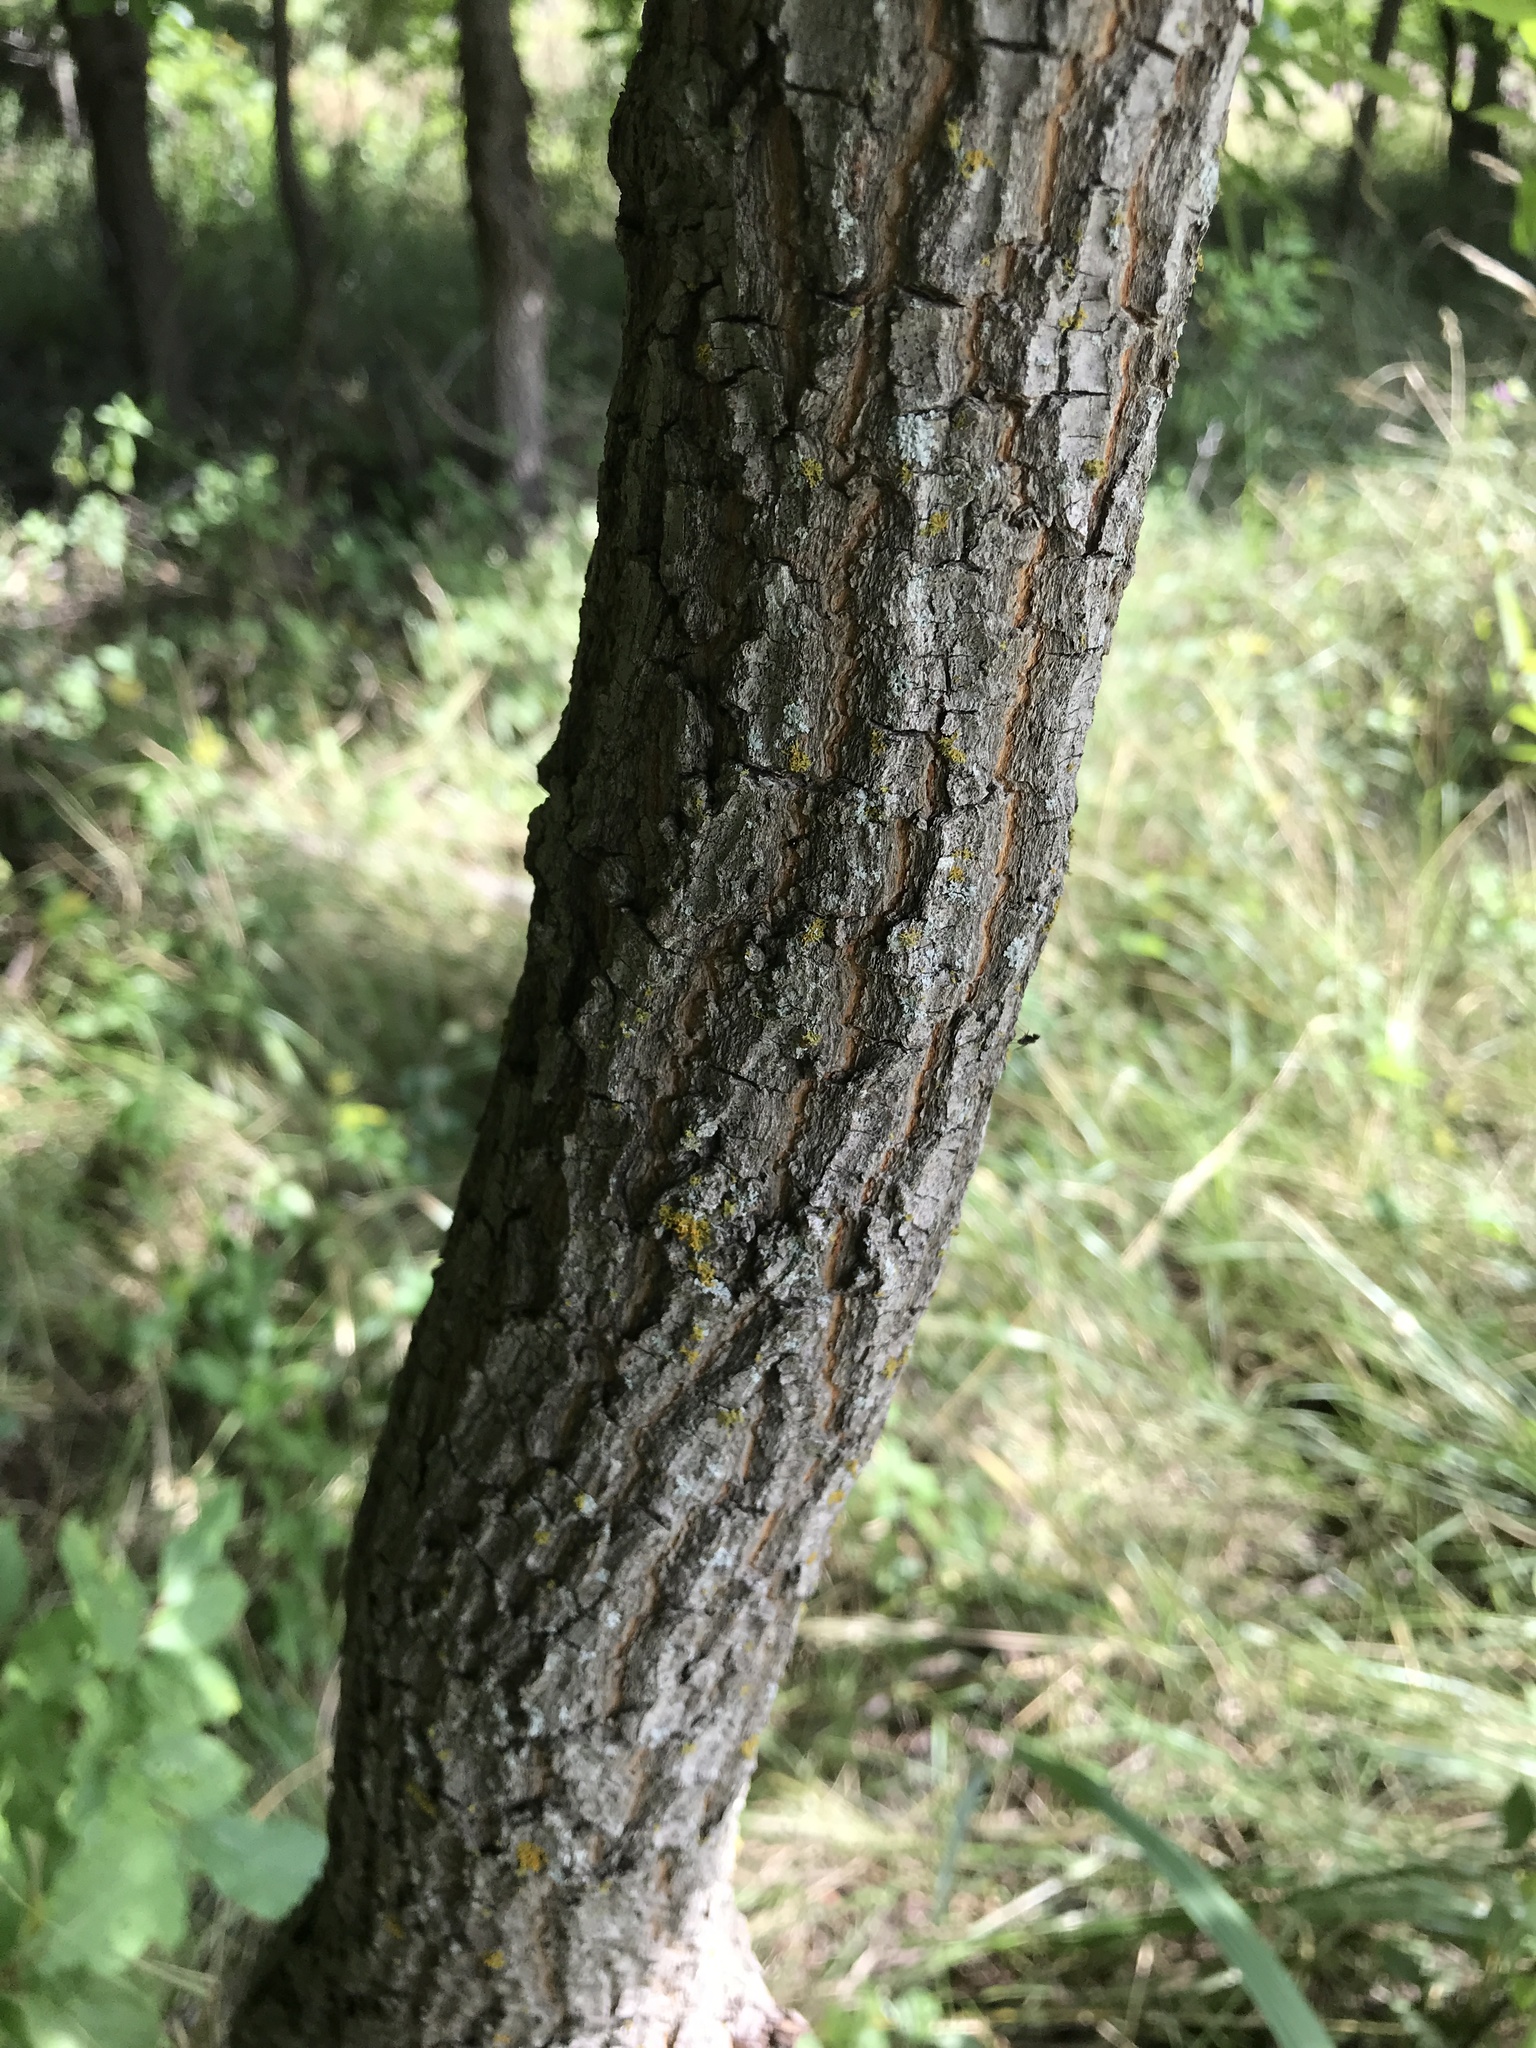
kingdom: Plantae
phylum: Tracheophyta
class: Magnoliopsida
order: Ericales
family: Ebenaceae
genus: Diospyros
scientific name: Diospyros virginiana
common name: Persimmon
